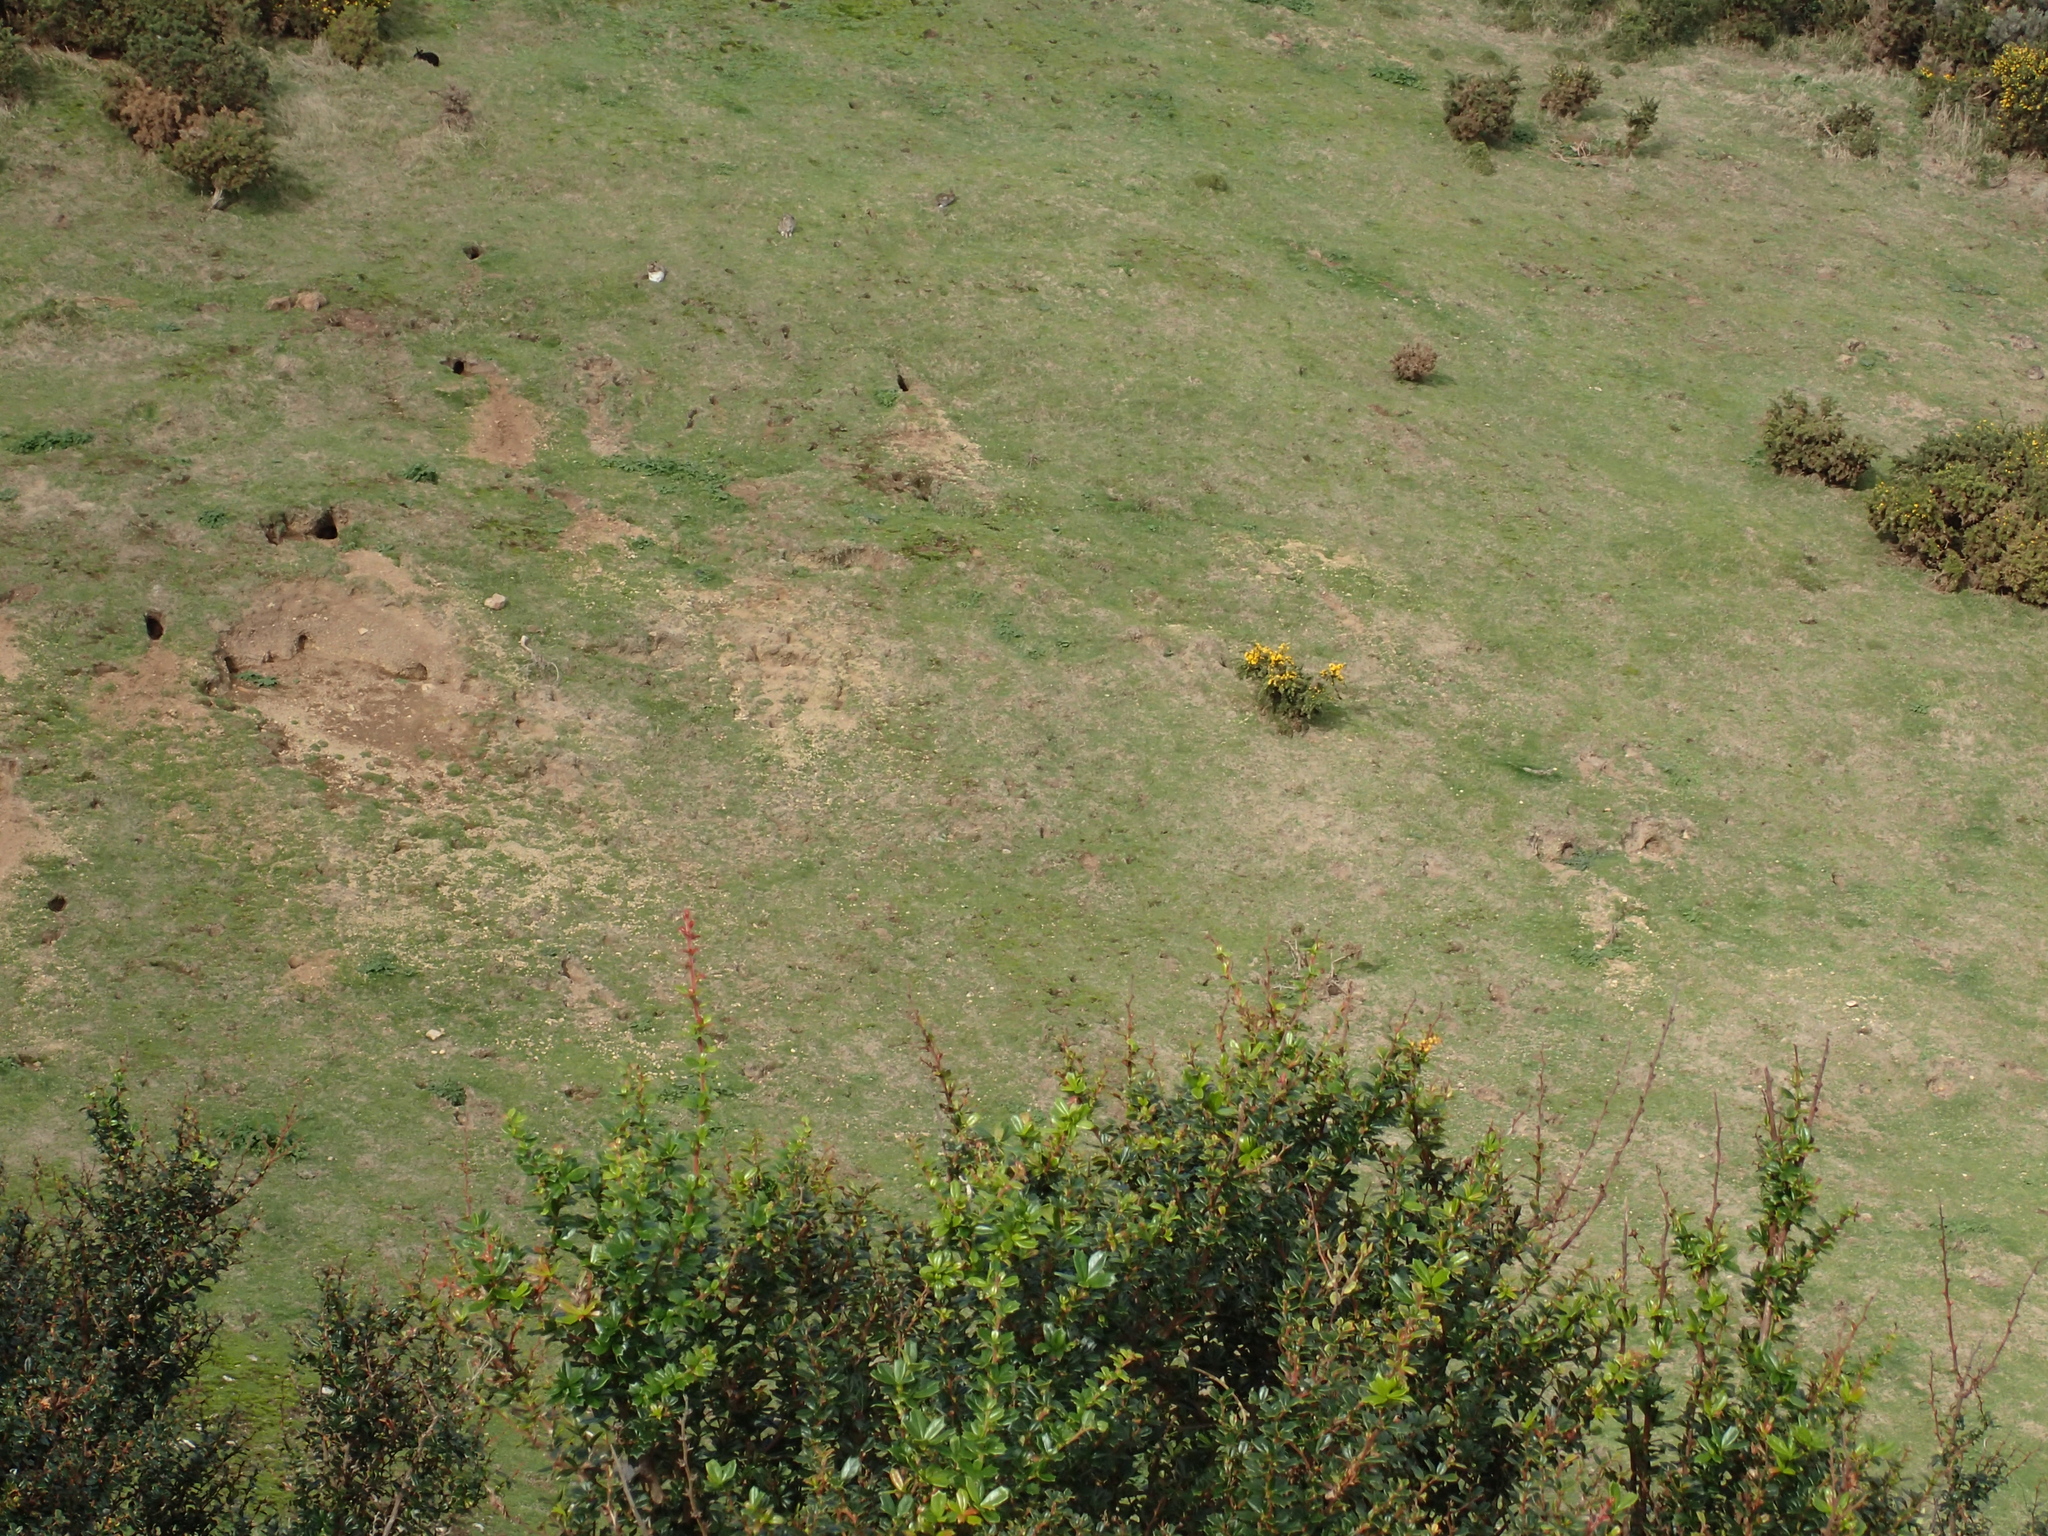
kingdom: Animalia
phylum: Chordata
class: Mammalia
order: Lagomorpha
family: Leporidae
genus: Oryctolagus
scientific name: Oryctolagus cuniculus
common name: European rabbit
